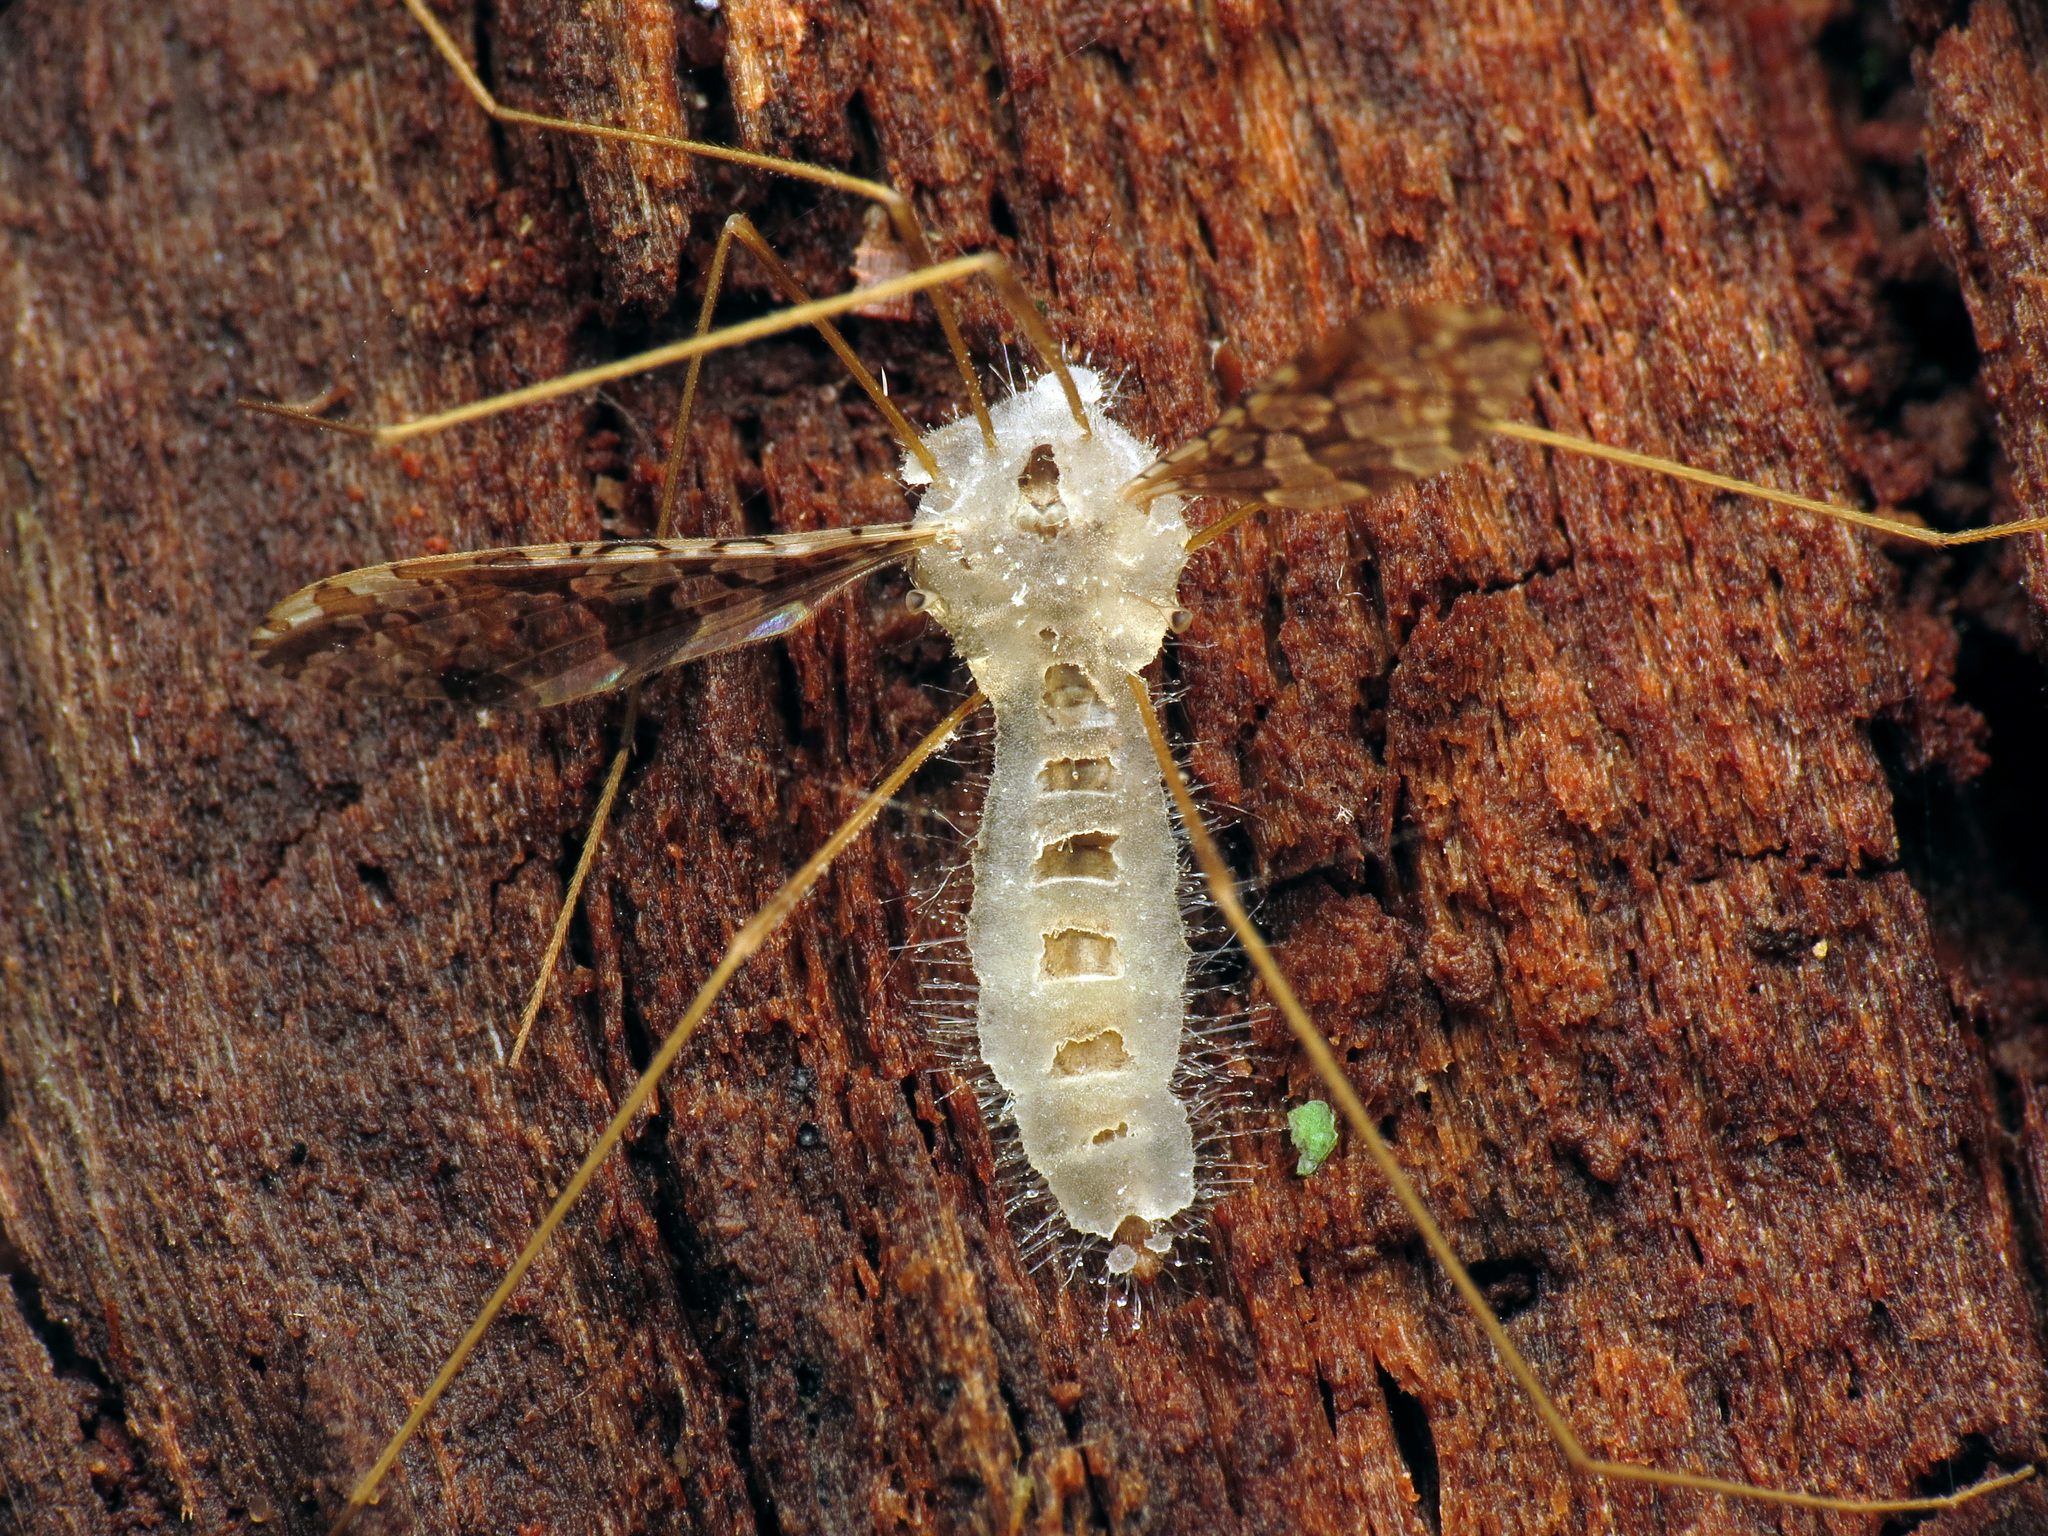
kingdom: Animalia
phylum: Arthropoda
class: Insecta
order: Diptera
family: Limoniidae
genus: Epiphragma
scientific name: Epiphragma solatrix
